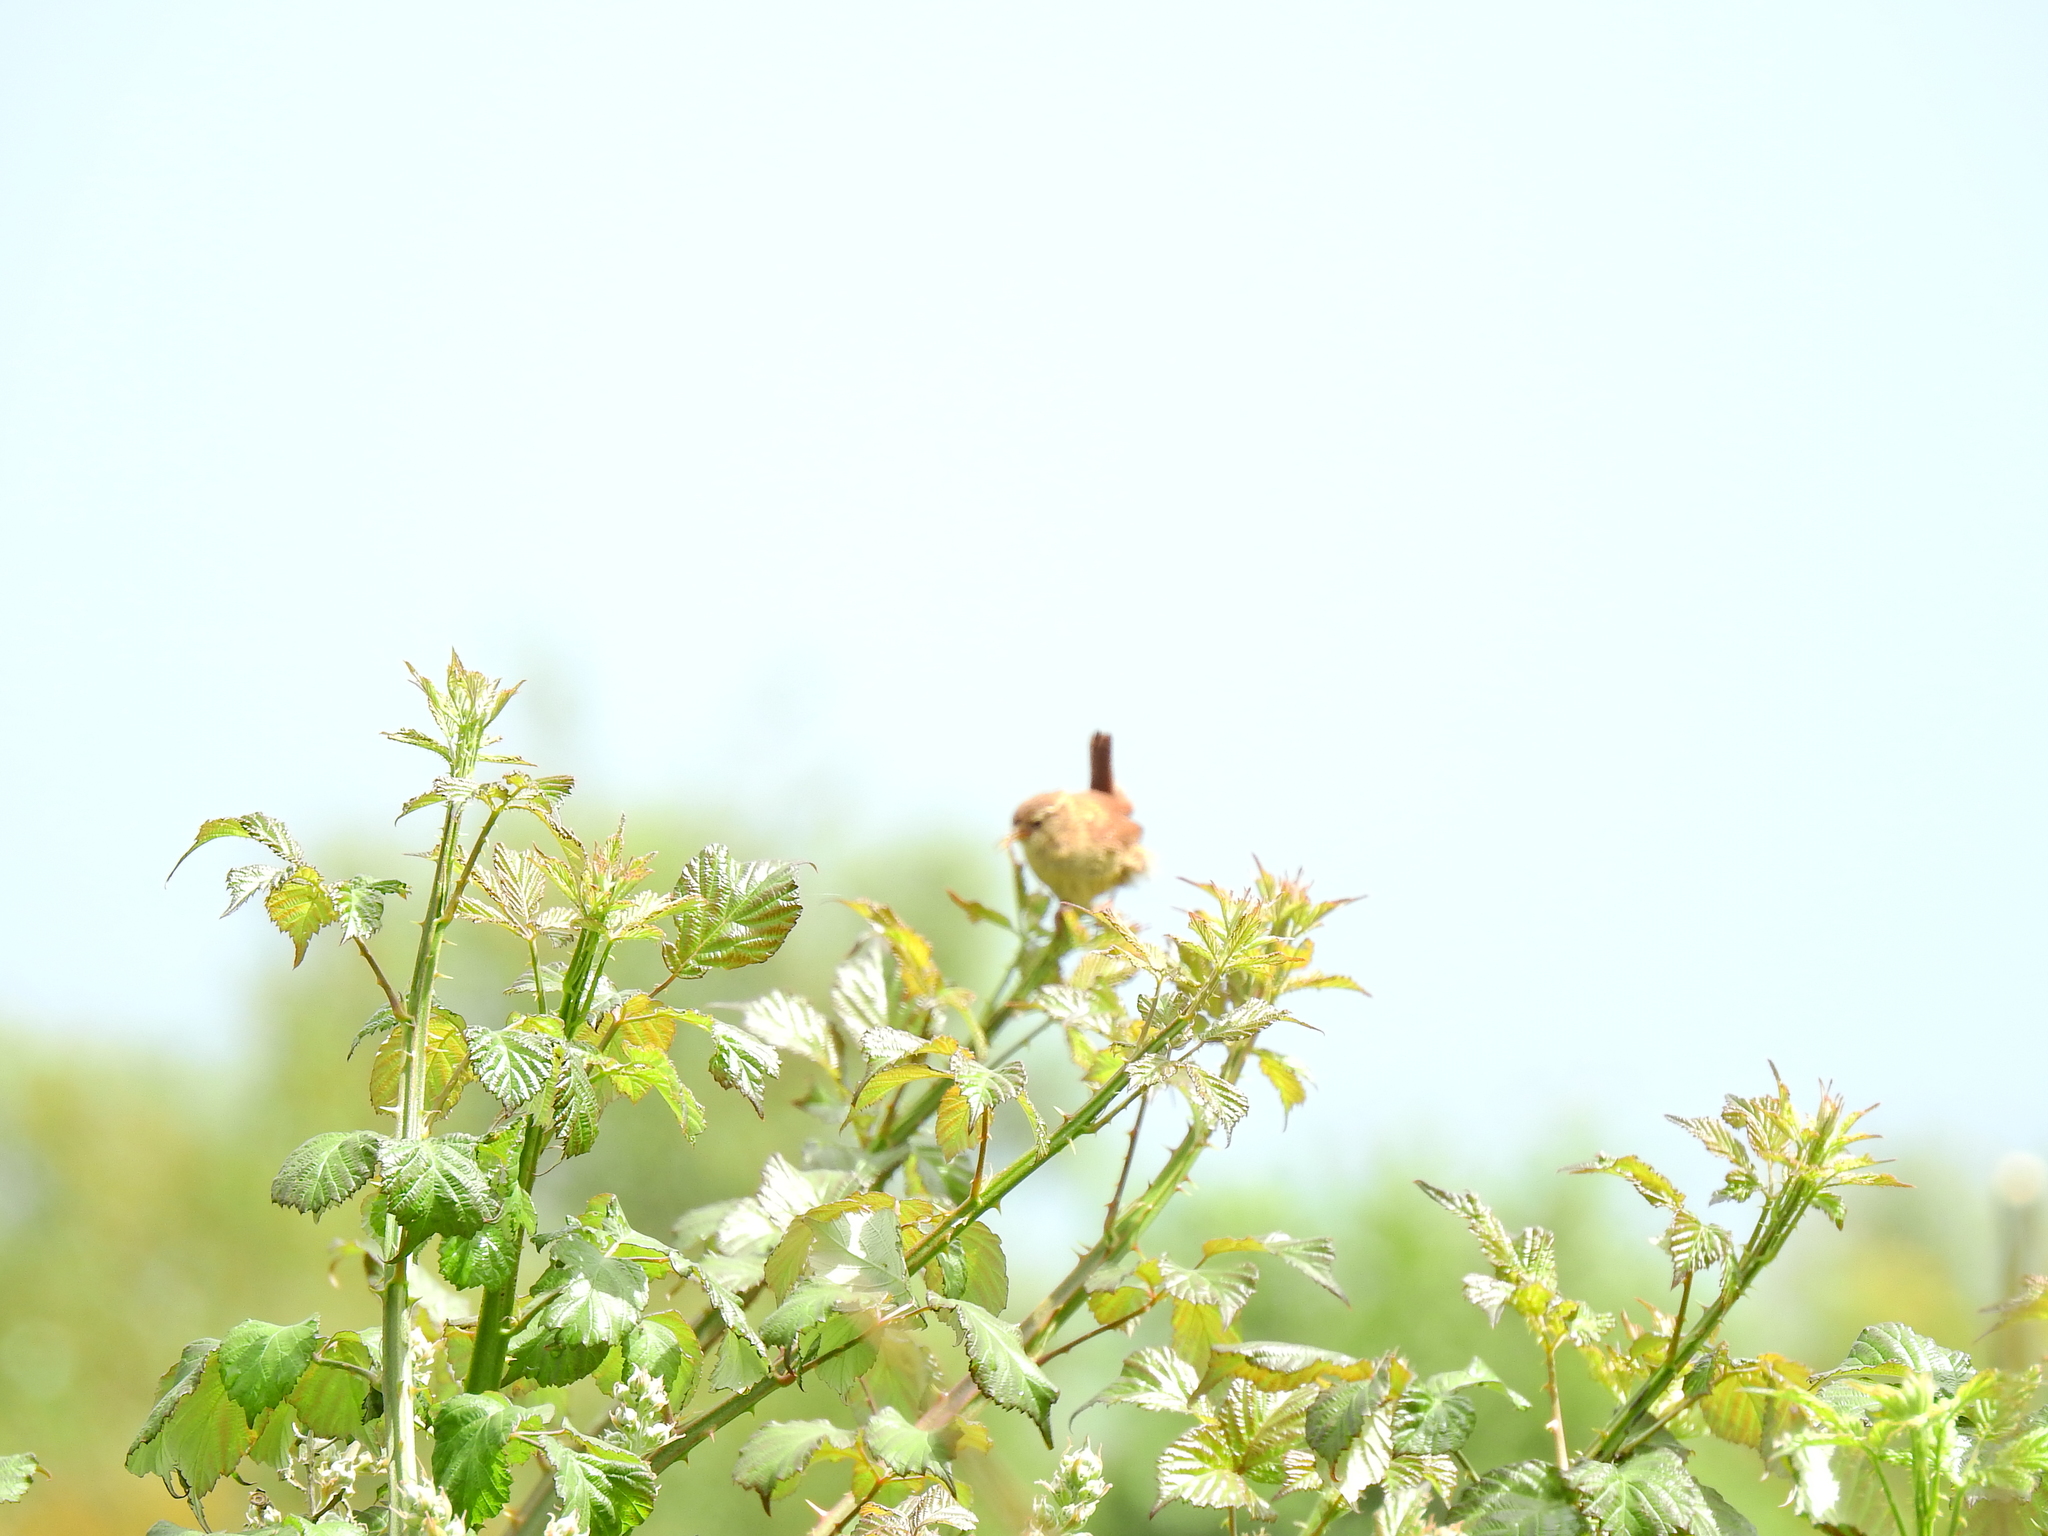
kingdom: Animalia
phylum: Chordata
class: Aves
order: Passeriformes
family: Troglodytidae
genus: Troglodytes
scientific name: Troglodytes troglodytes
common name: Eurasian wren
